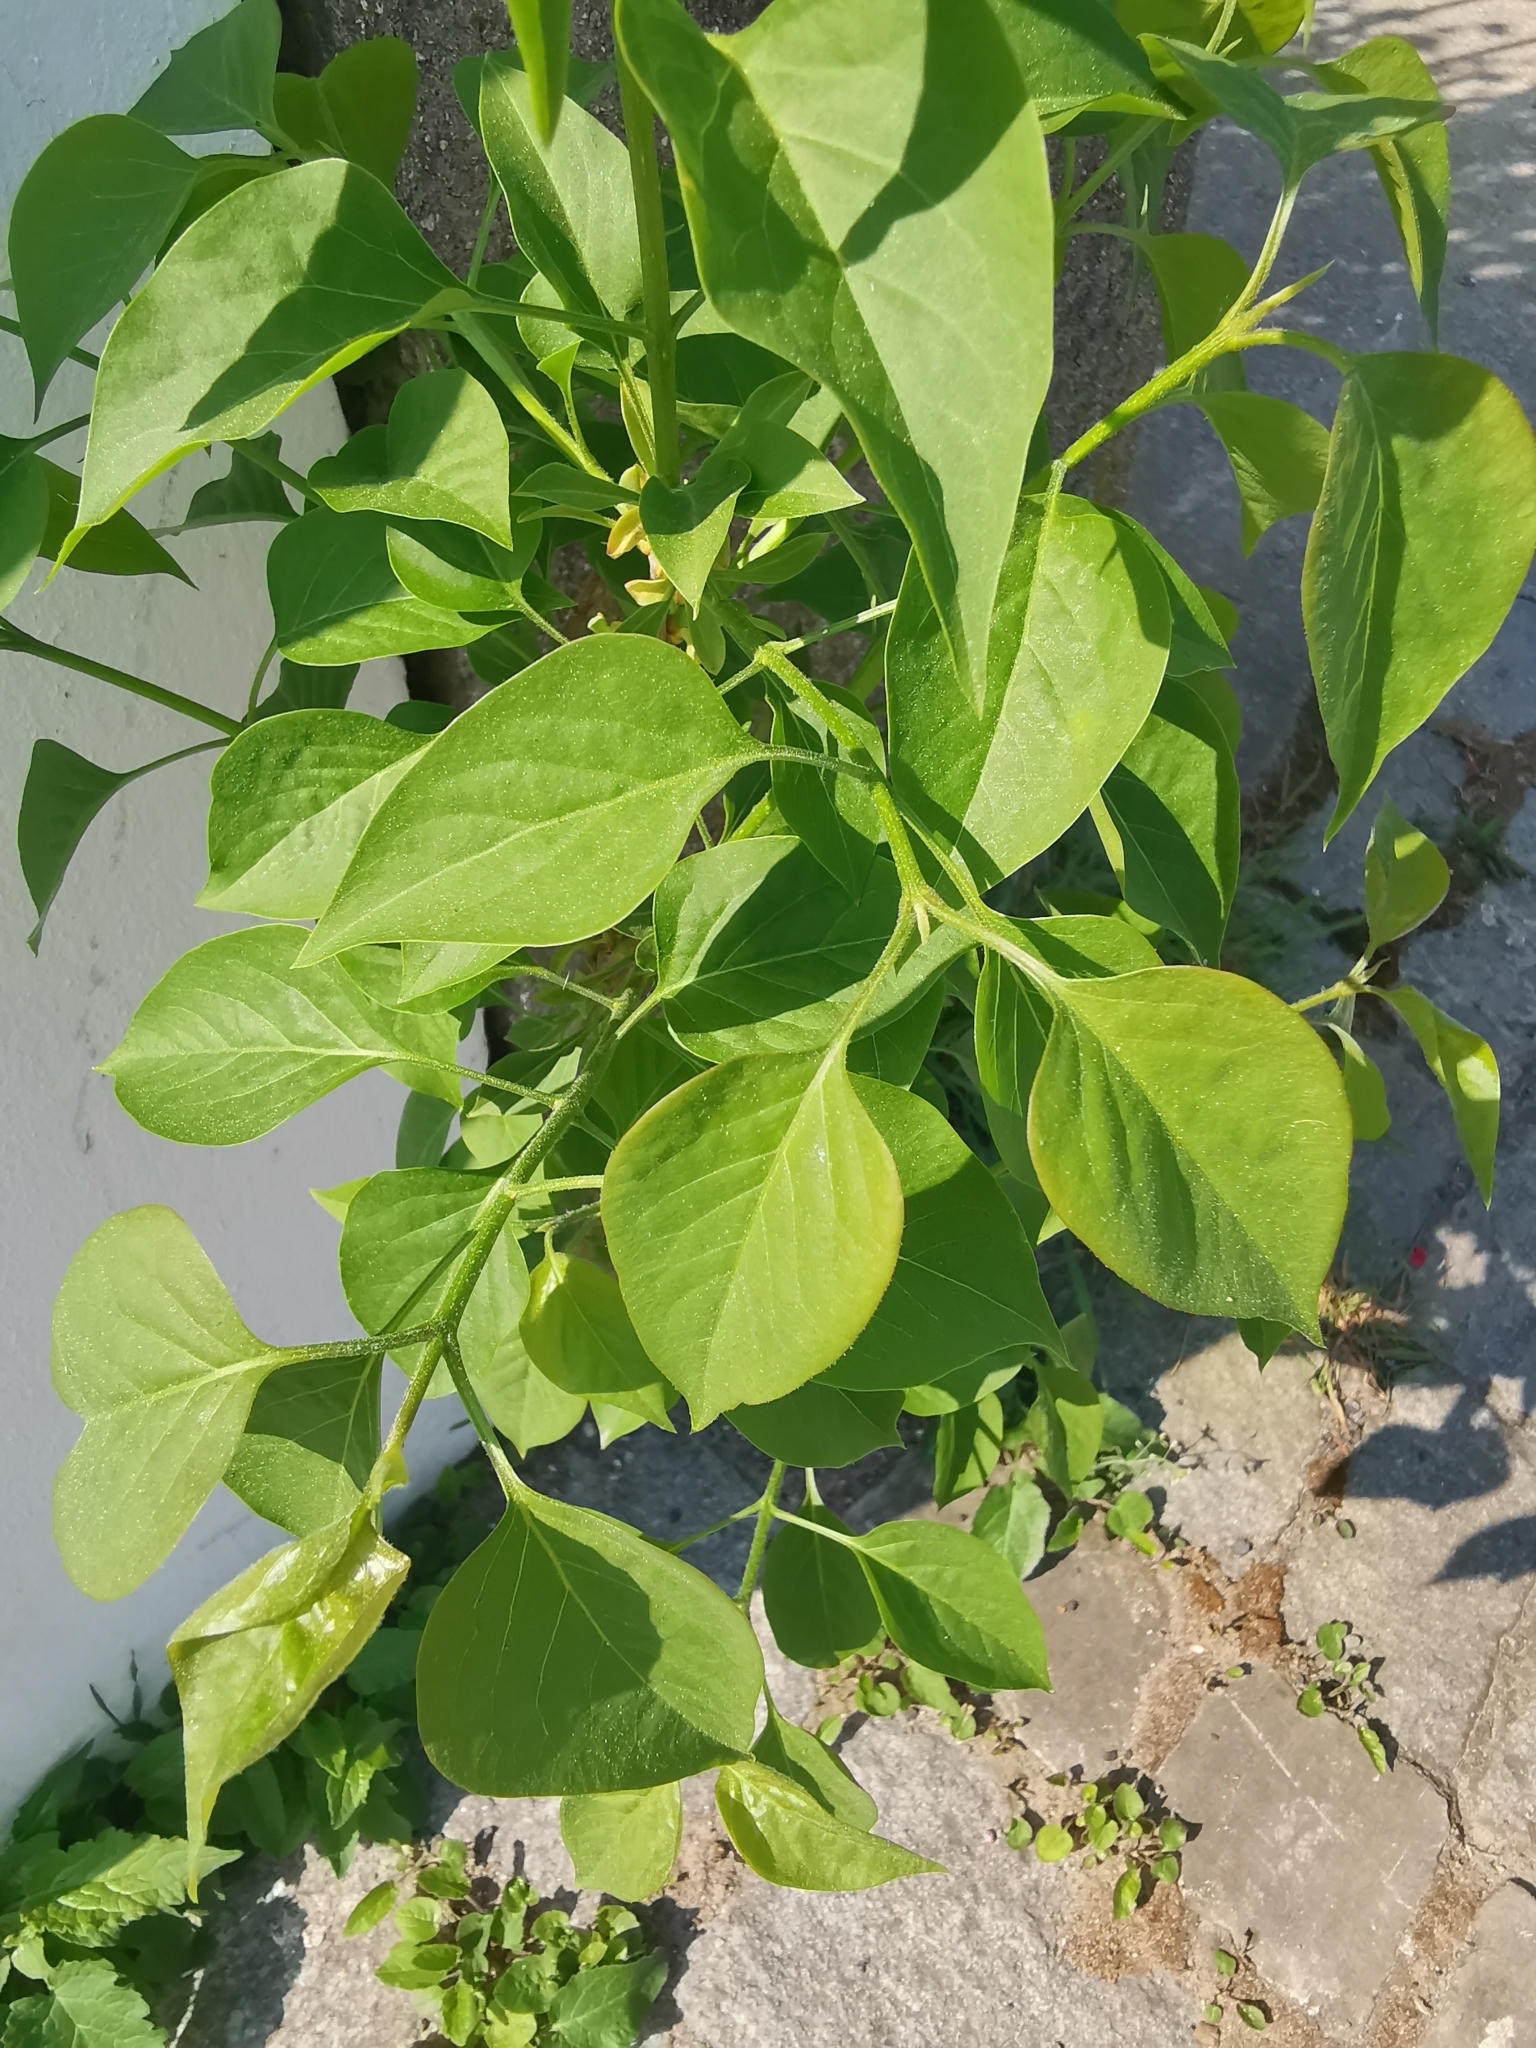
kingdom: Plantae
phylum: Tracheophyta
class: Magnoliopsida
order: Lamiales
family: Oleaceae
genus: Syringa
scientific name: Syringa vulgaris
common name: Common lilac
